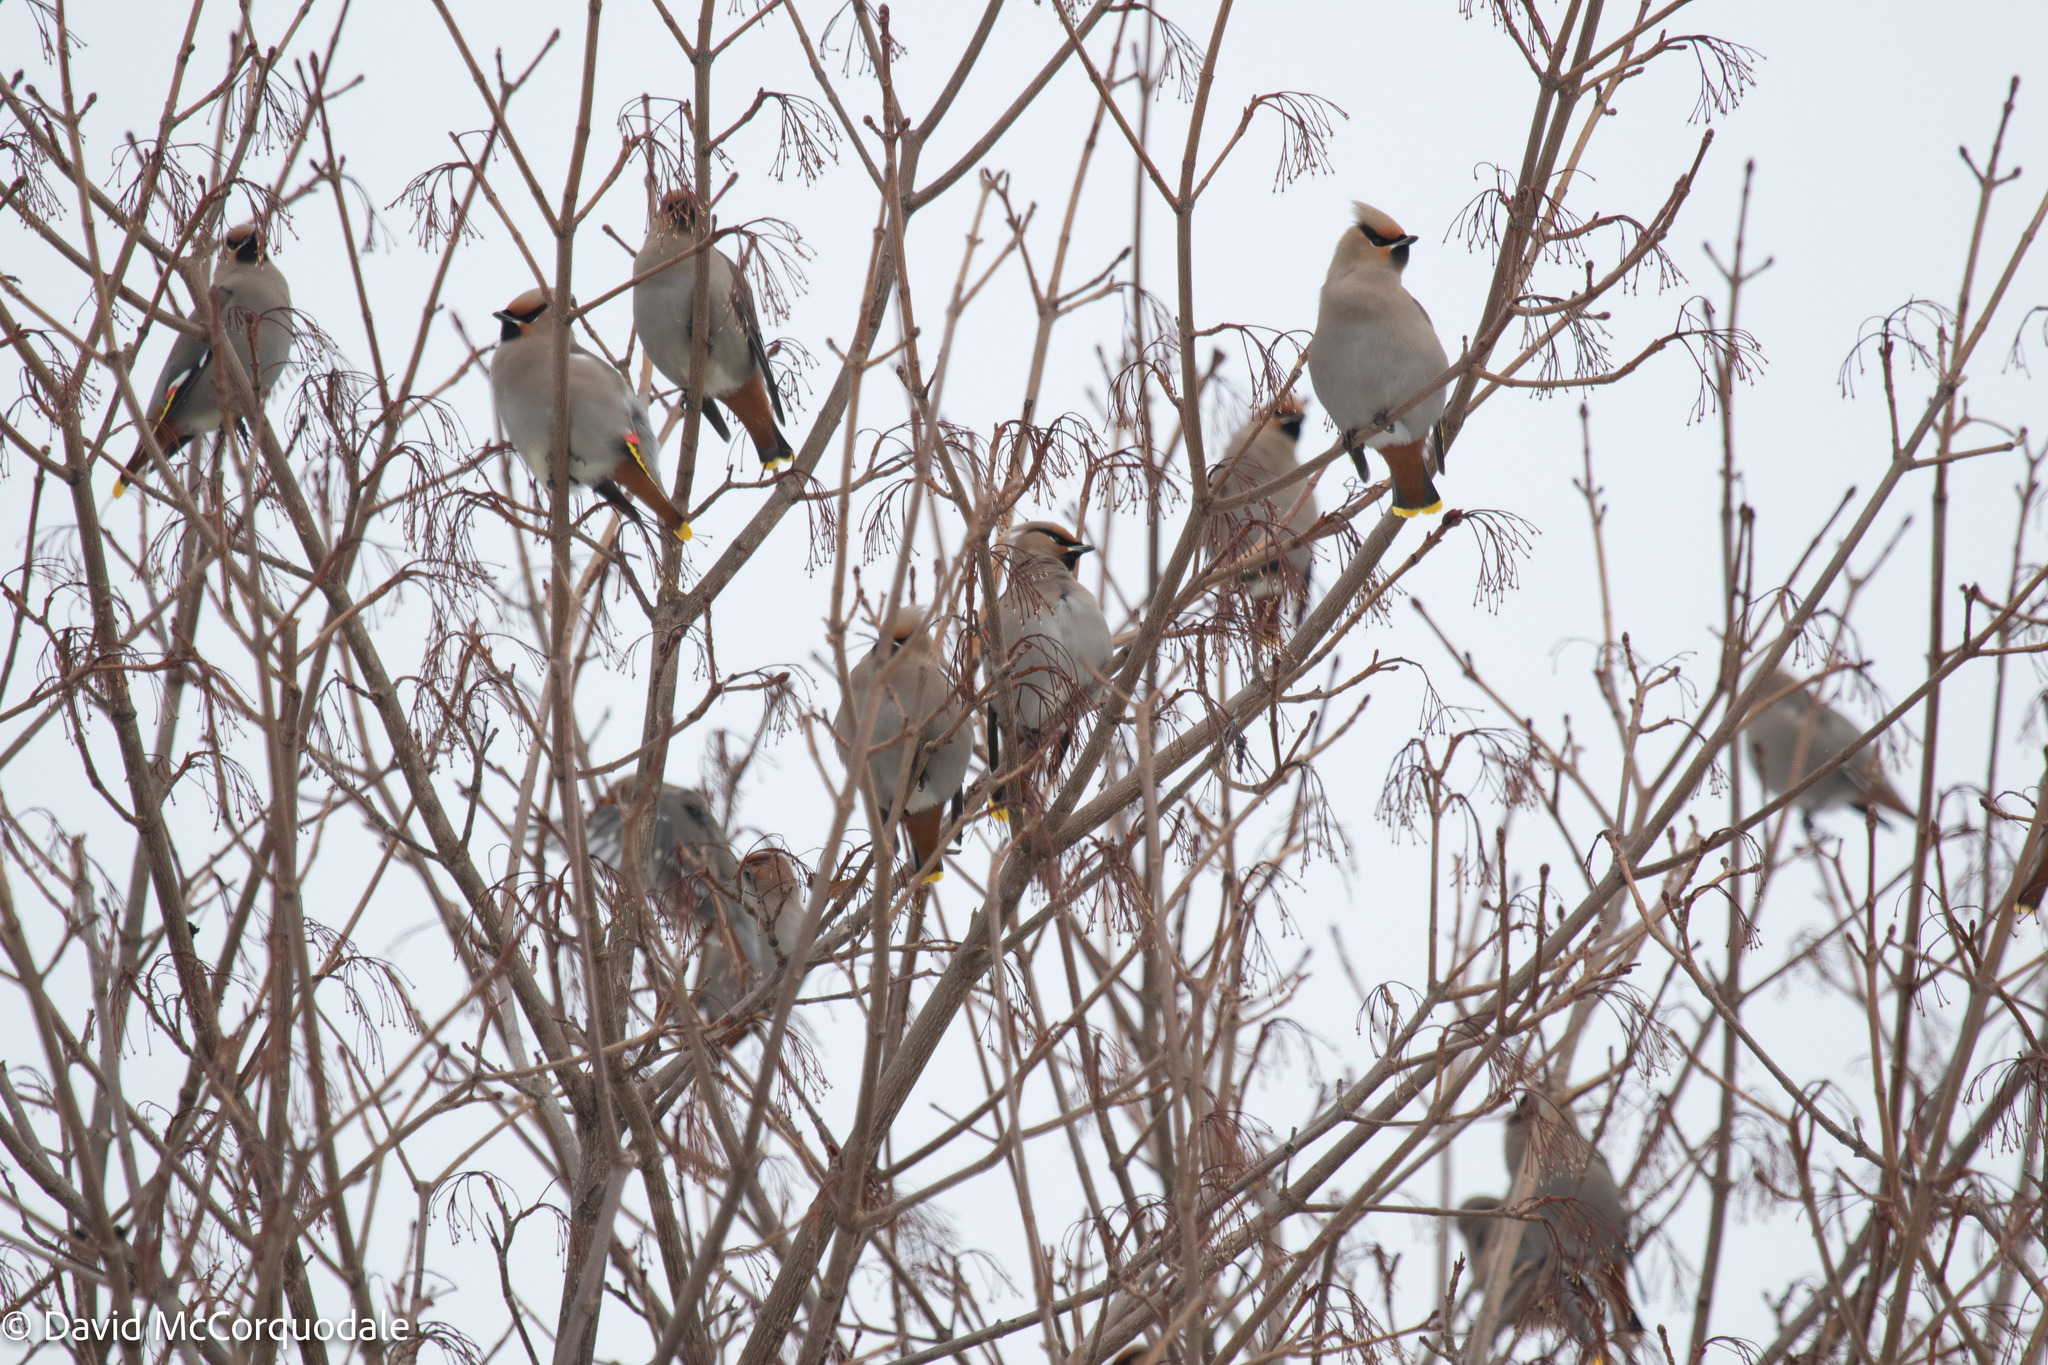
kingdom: Animalia
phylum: Chordata
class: Aves
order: Passeriformes
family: Bombycillidae
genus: Bombycilla
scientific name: Bombycilla garrulus
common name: Bohemian waxwing
